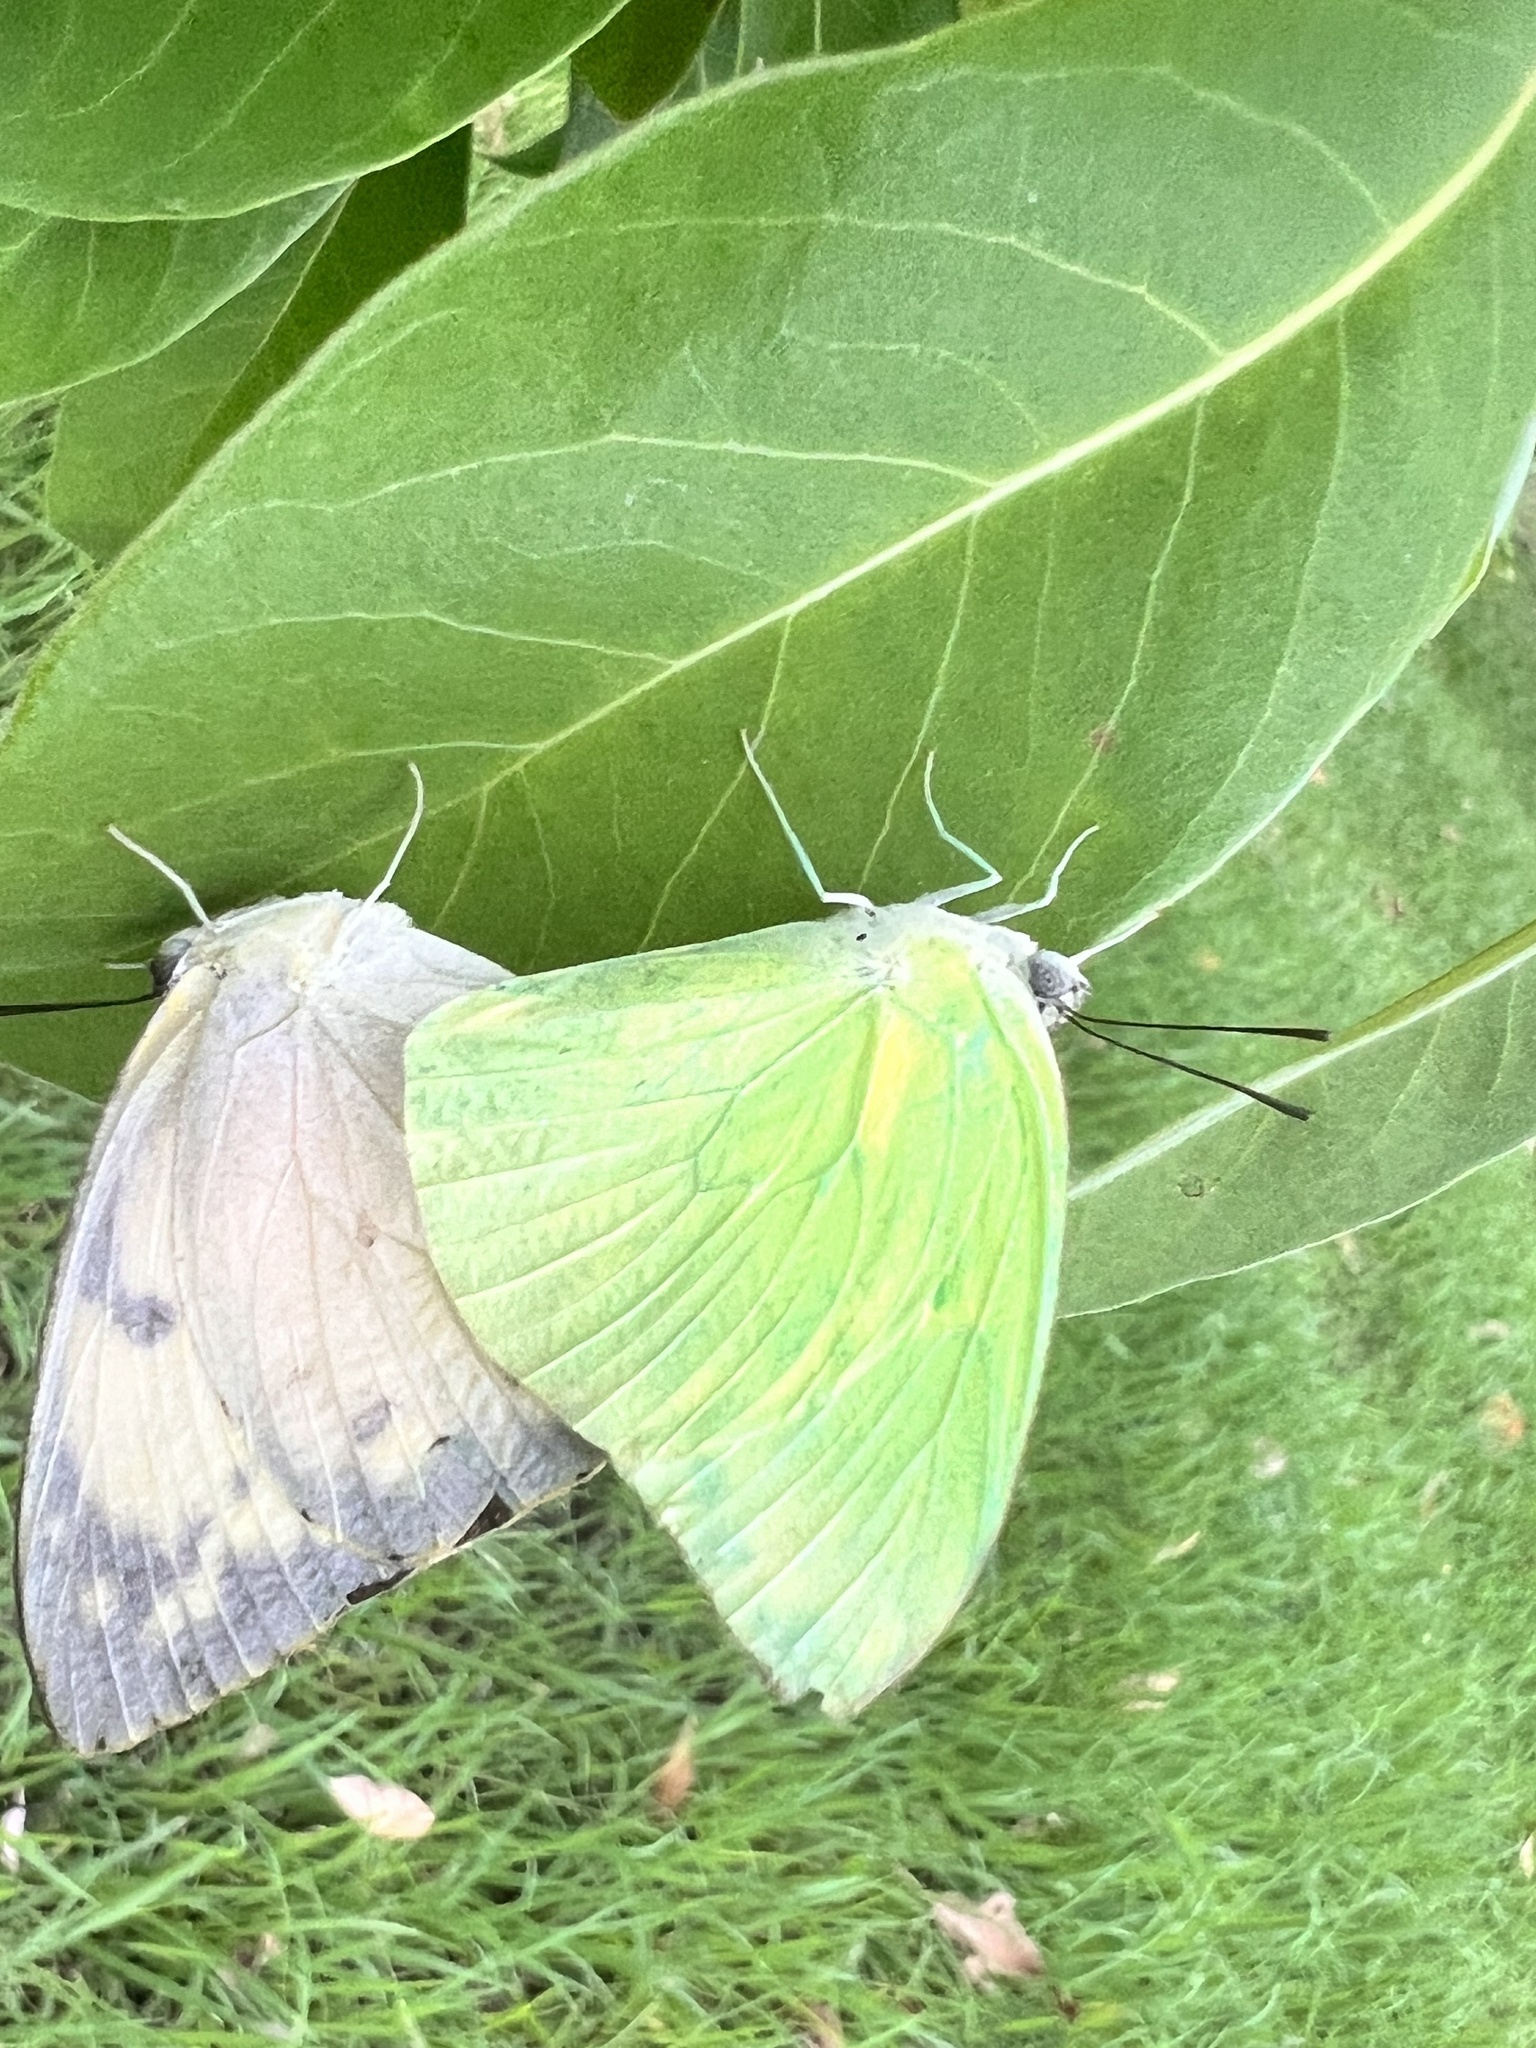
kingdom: Animalia
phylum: Arthropoda
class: Insecta
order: Lepidoptera
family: Pieridae
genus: Catopsilia
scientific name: Catopsilia pomona
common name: Common emigrant
